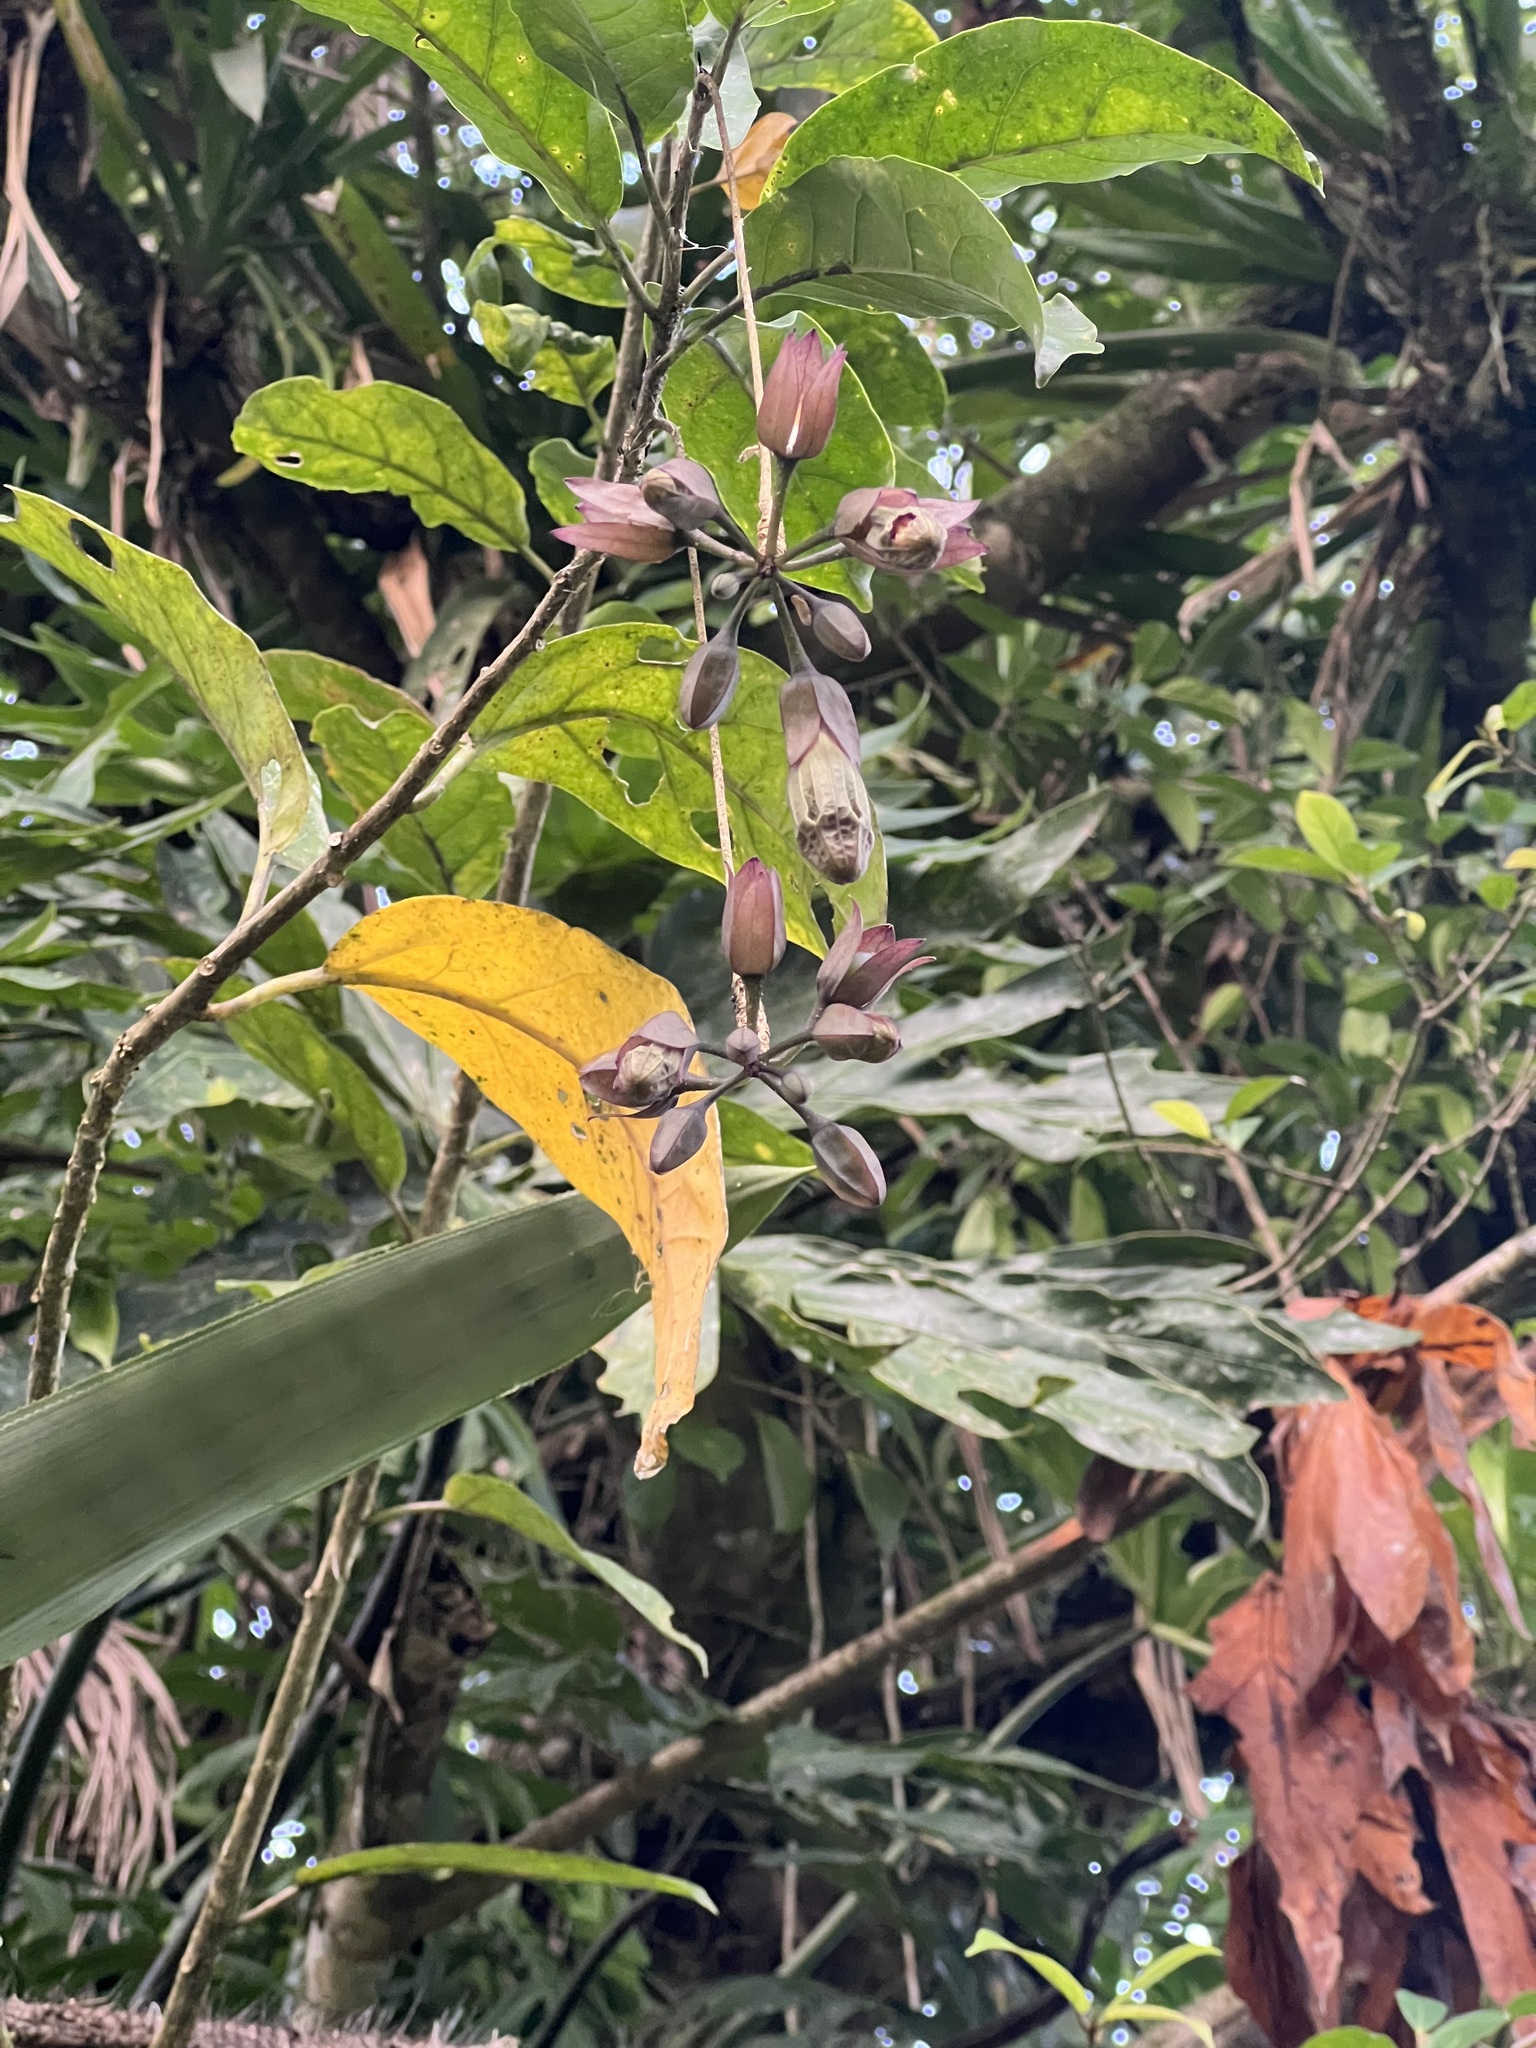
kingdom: Plantae
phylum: Tracheophyta
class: Magnoliopsida
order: Solanales
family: Solanaceae
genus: Merinthopodium
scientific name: Merinthopodium neuranthum
